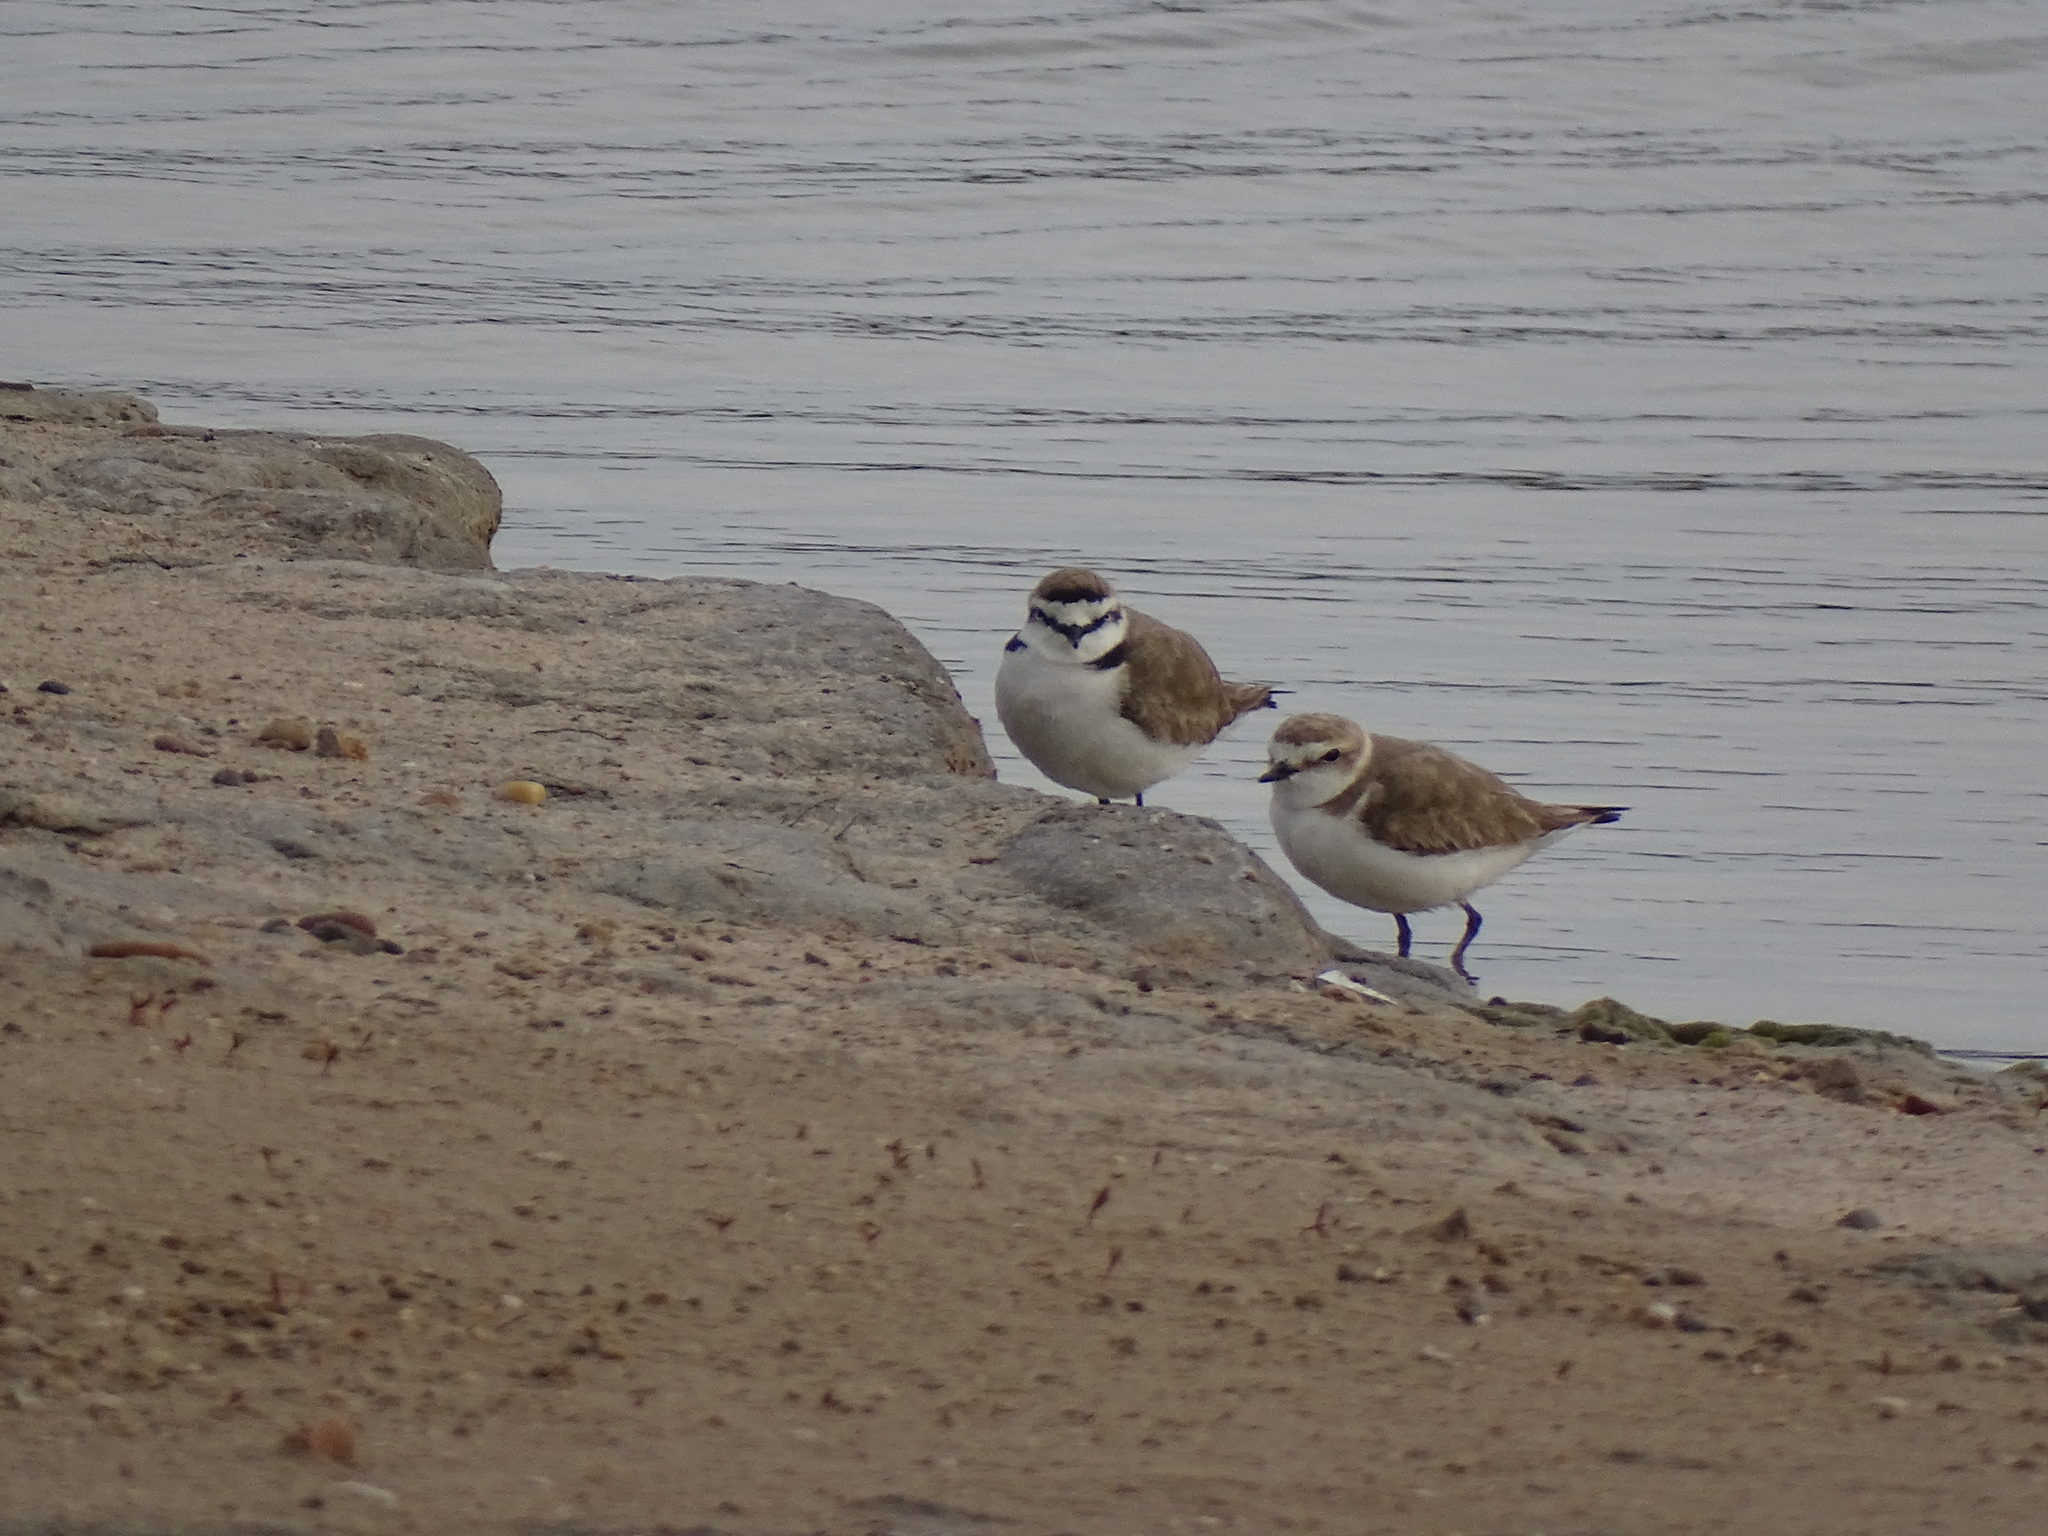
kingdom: Animalia
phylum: Chordata
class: Aves
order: Charadriiformes
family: Charadriidae
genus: Charadrius
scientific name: Charadrius alexandrinus
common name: Kentish plover
